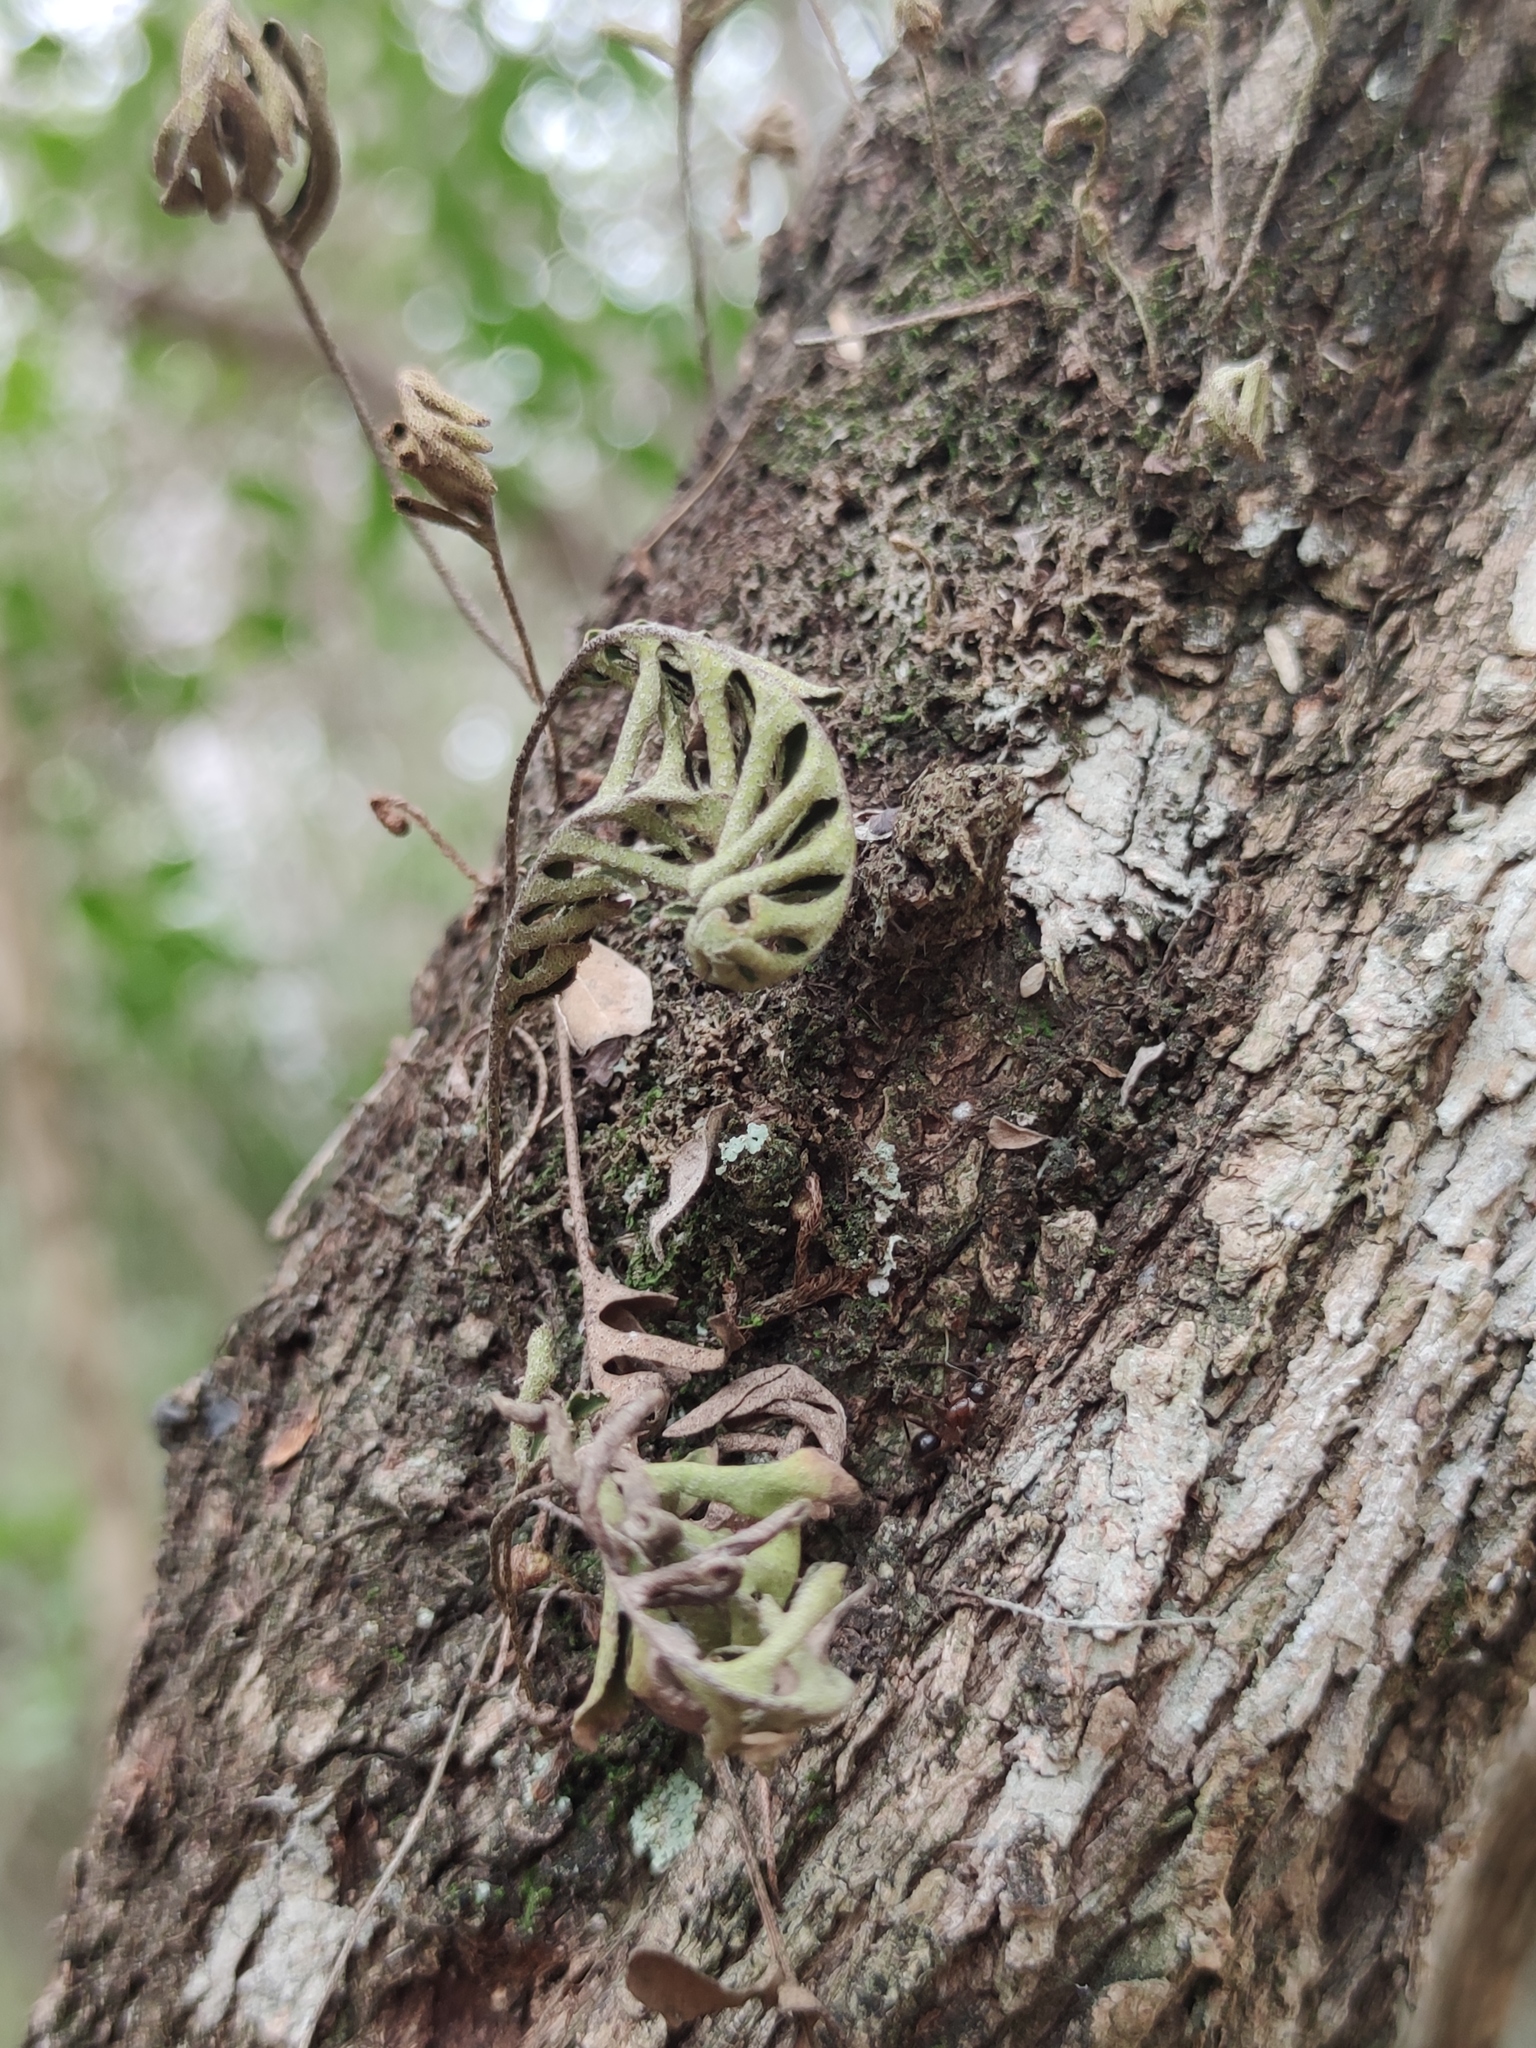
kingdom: Plantae
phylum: Tracheophyta
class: Polypodiopsida
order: Polypodiales
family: Polypodiaceae
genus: Pleopeltis
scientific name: Pleopeltis michauxiana
